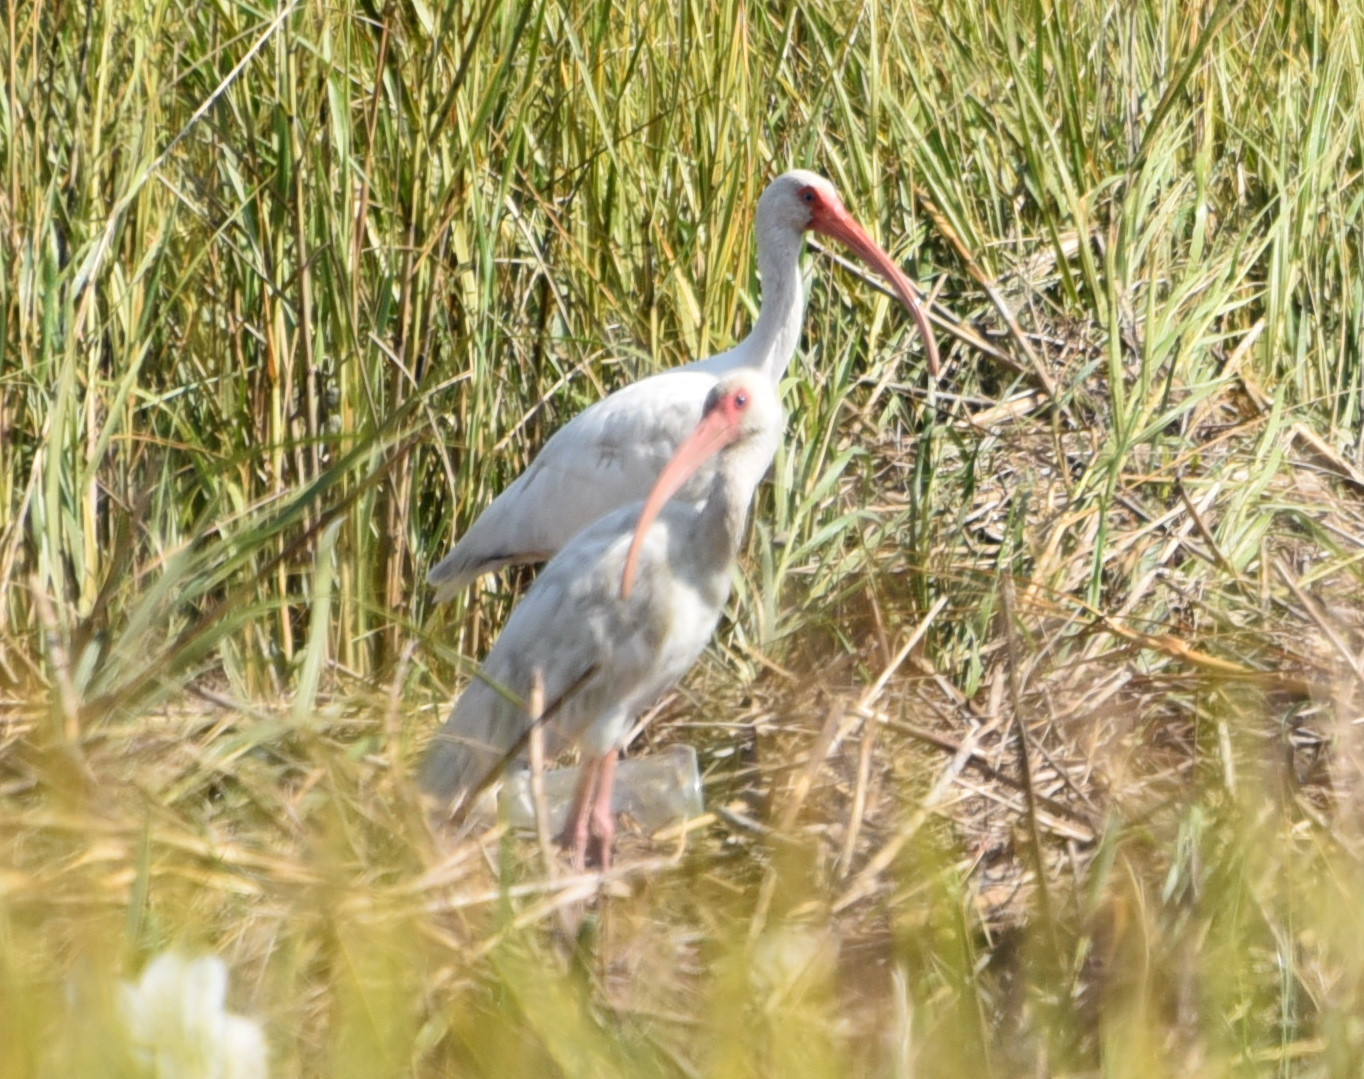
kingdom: Animalia
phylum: Chordata
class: Aves
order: Pelecaniformes
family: Threskiornithidae
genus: Eudocimus
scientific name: Eudocimus albus
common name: White ibis
